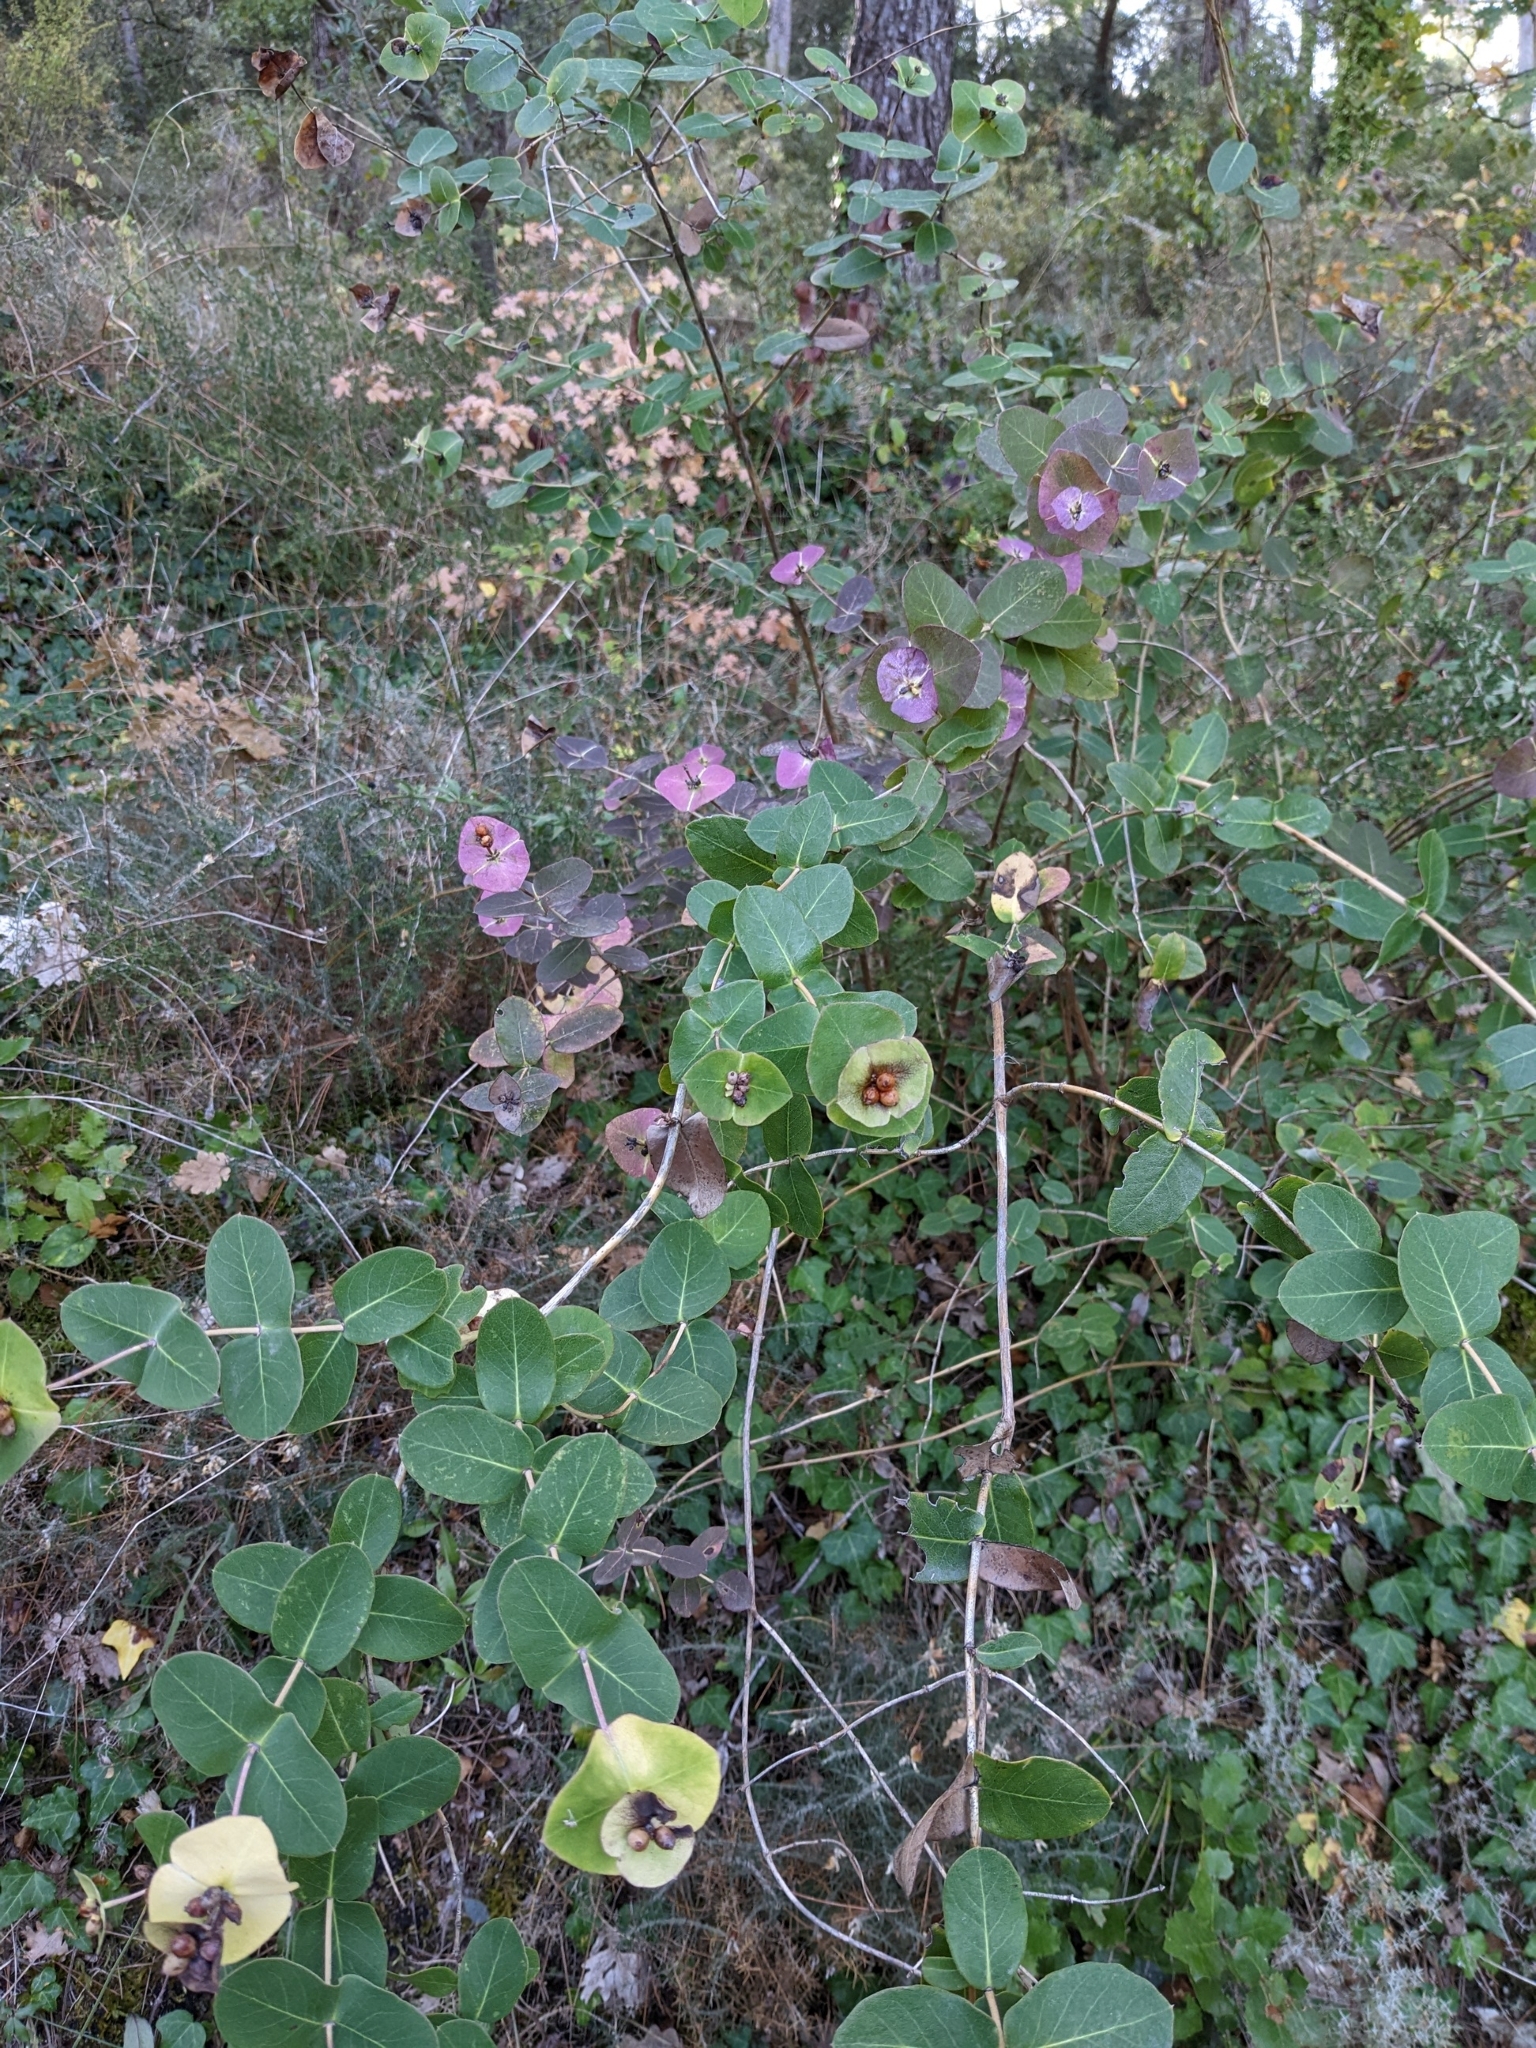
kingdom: Plantae
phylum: Tracheophyta
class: Magnoliopsida
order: Dipsacales
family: Caprifoliaceae
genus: Lonicera
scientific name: Lonicera implexa
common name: Minorca honeysuckle
